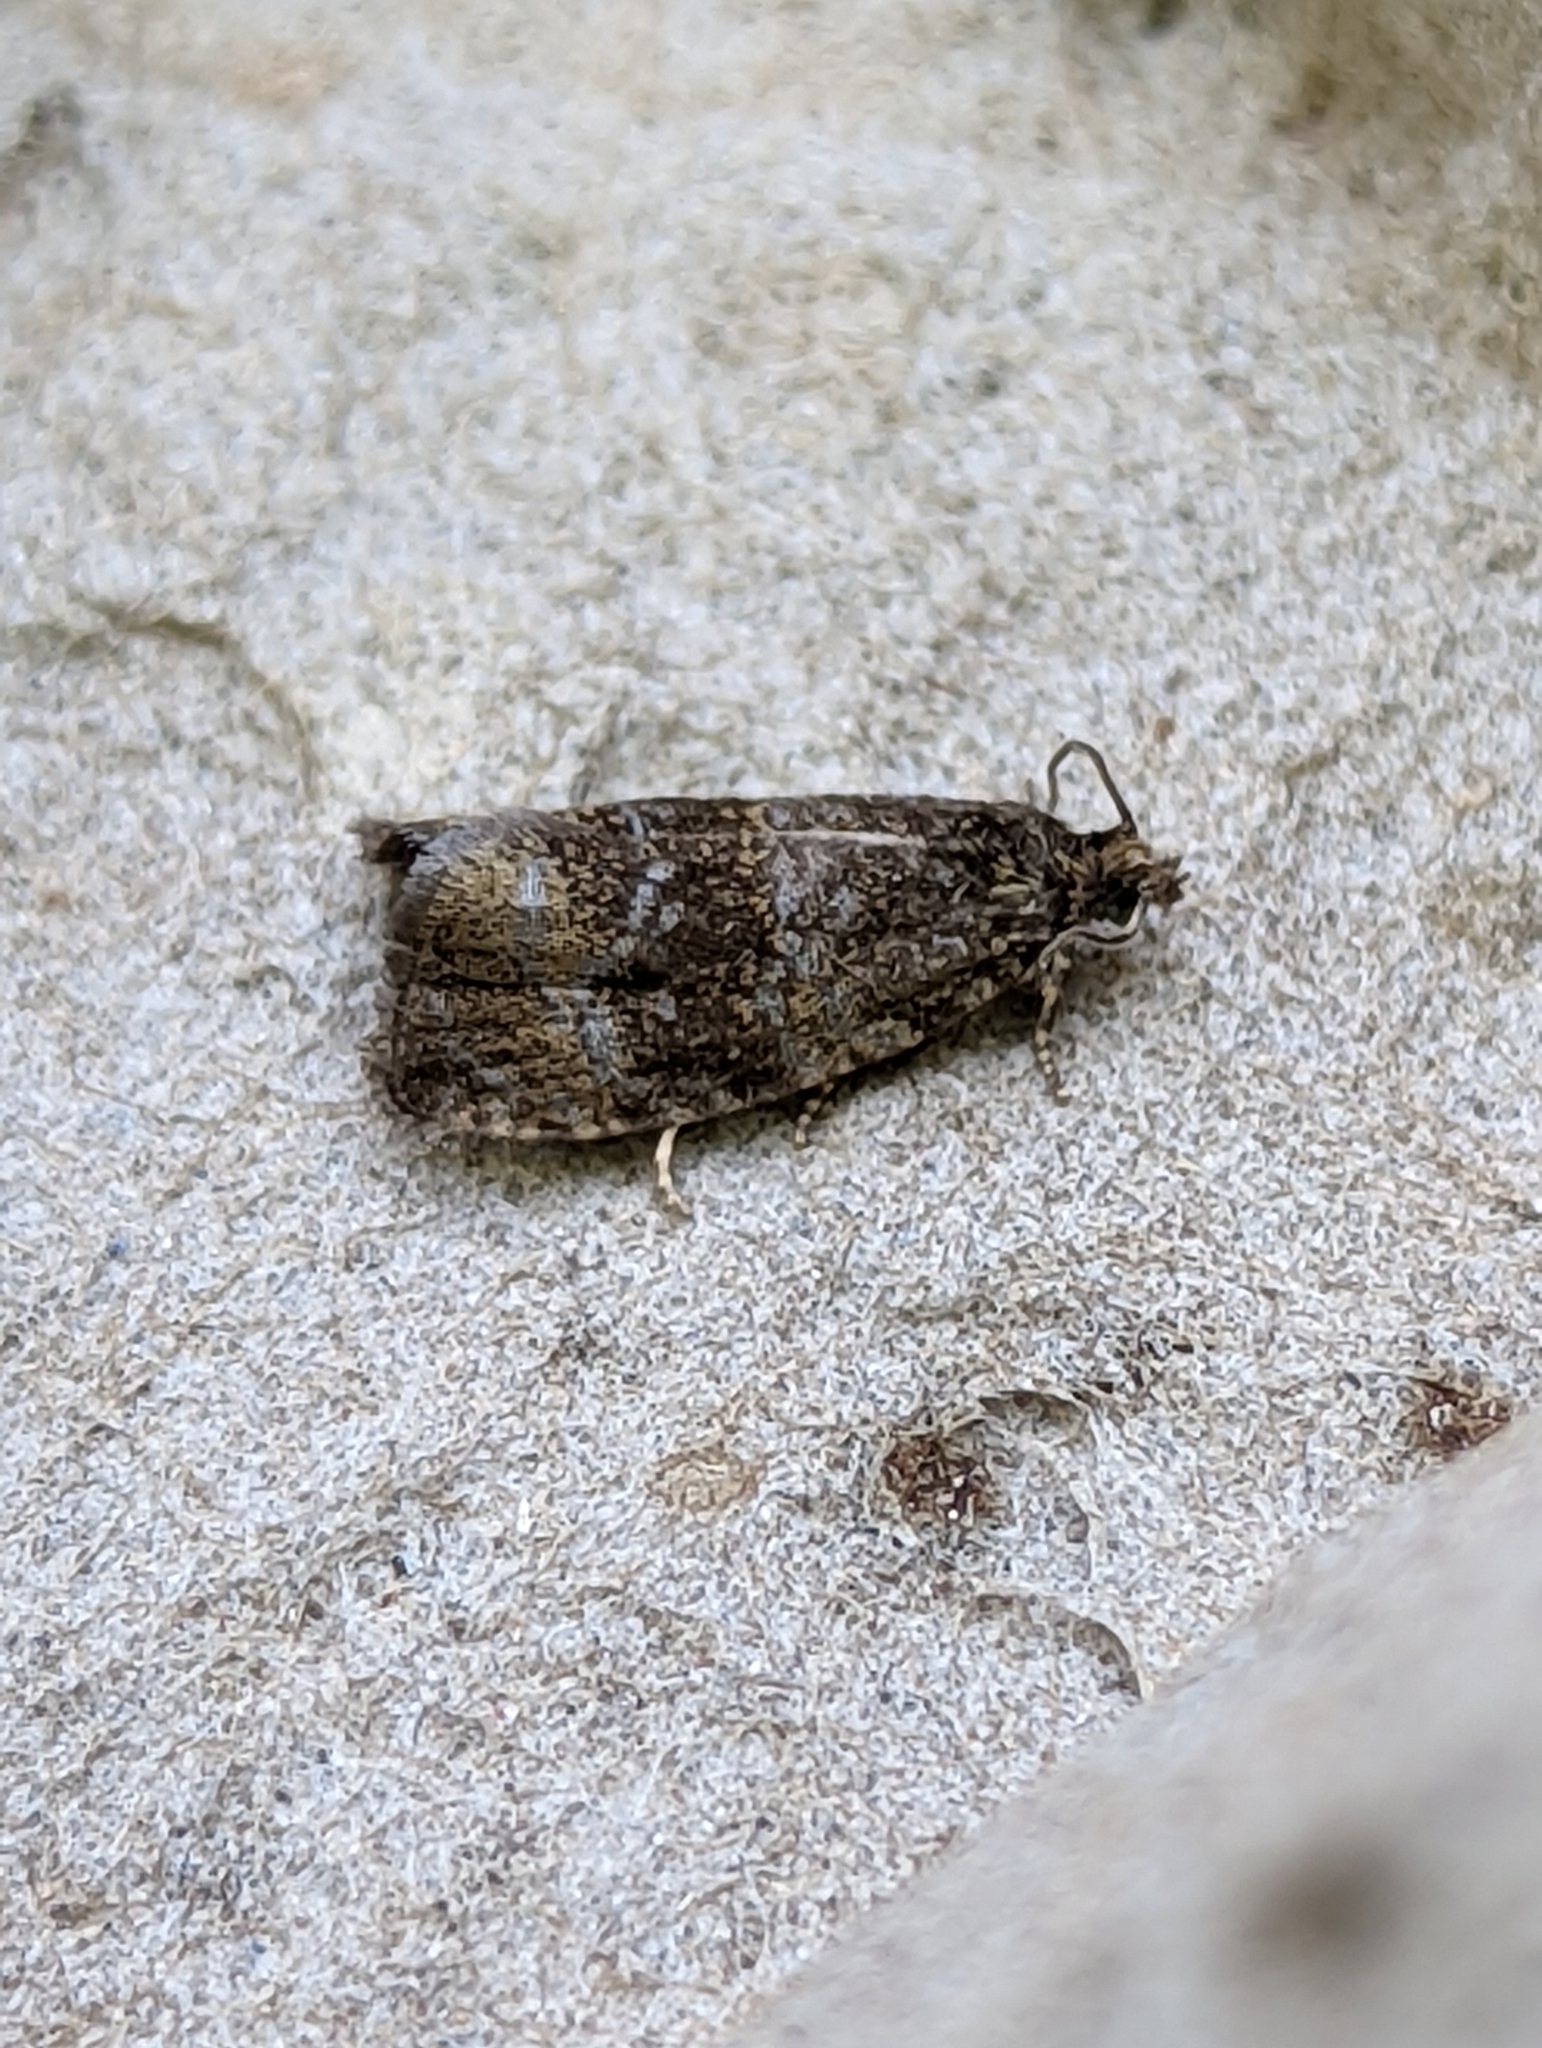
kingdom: Animalia
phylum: Arthropoda
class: Insecta
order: Lepidoptera
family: Tortricidae
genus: Syricoris
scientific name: Syricoris lacunana
